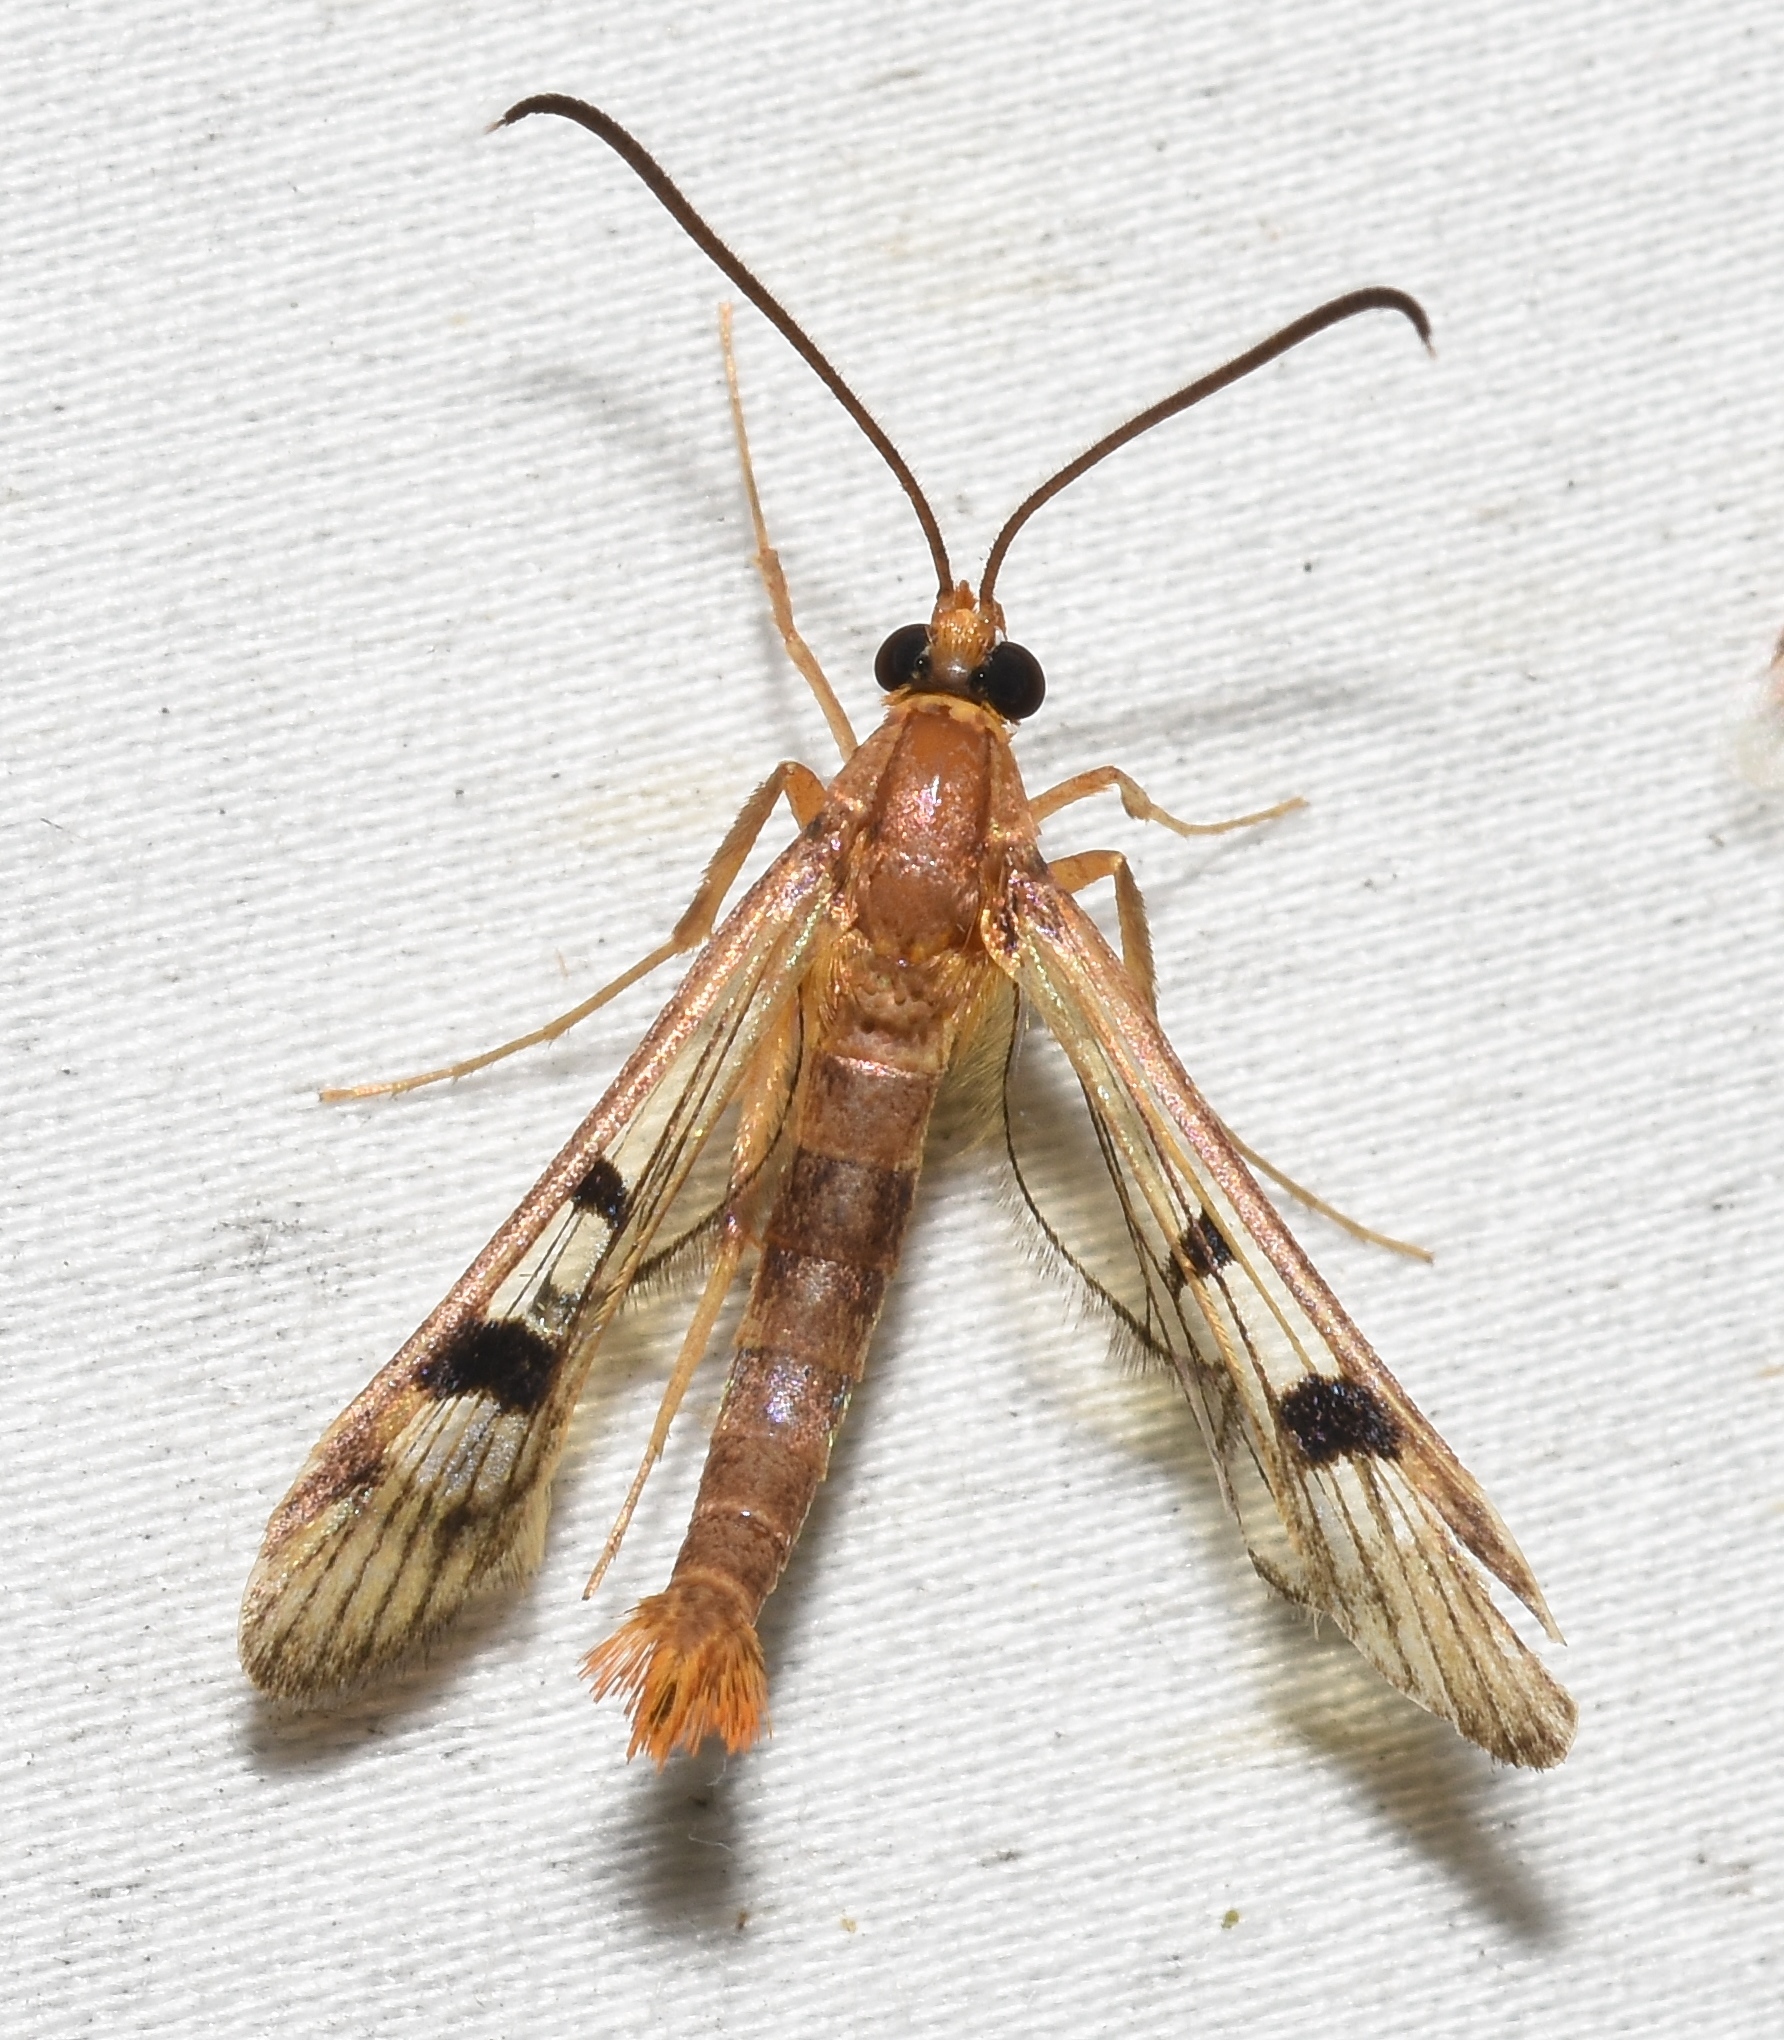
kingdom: Animalia
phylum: Arthropoda
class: Insecta
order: Lepidoptera
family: Sesiidae
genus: Synanthedon
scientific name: Synanthedon acerni
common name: Maple callus borer moth
